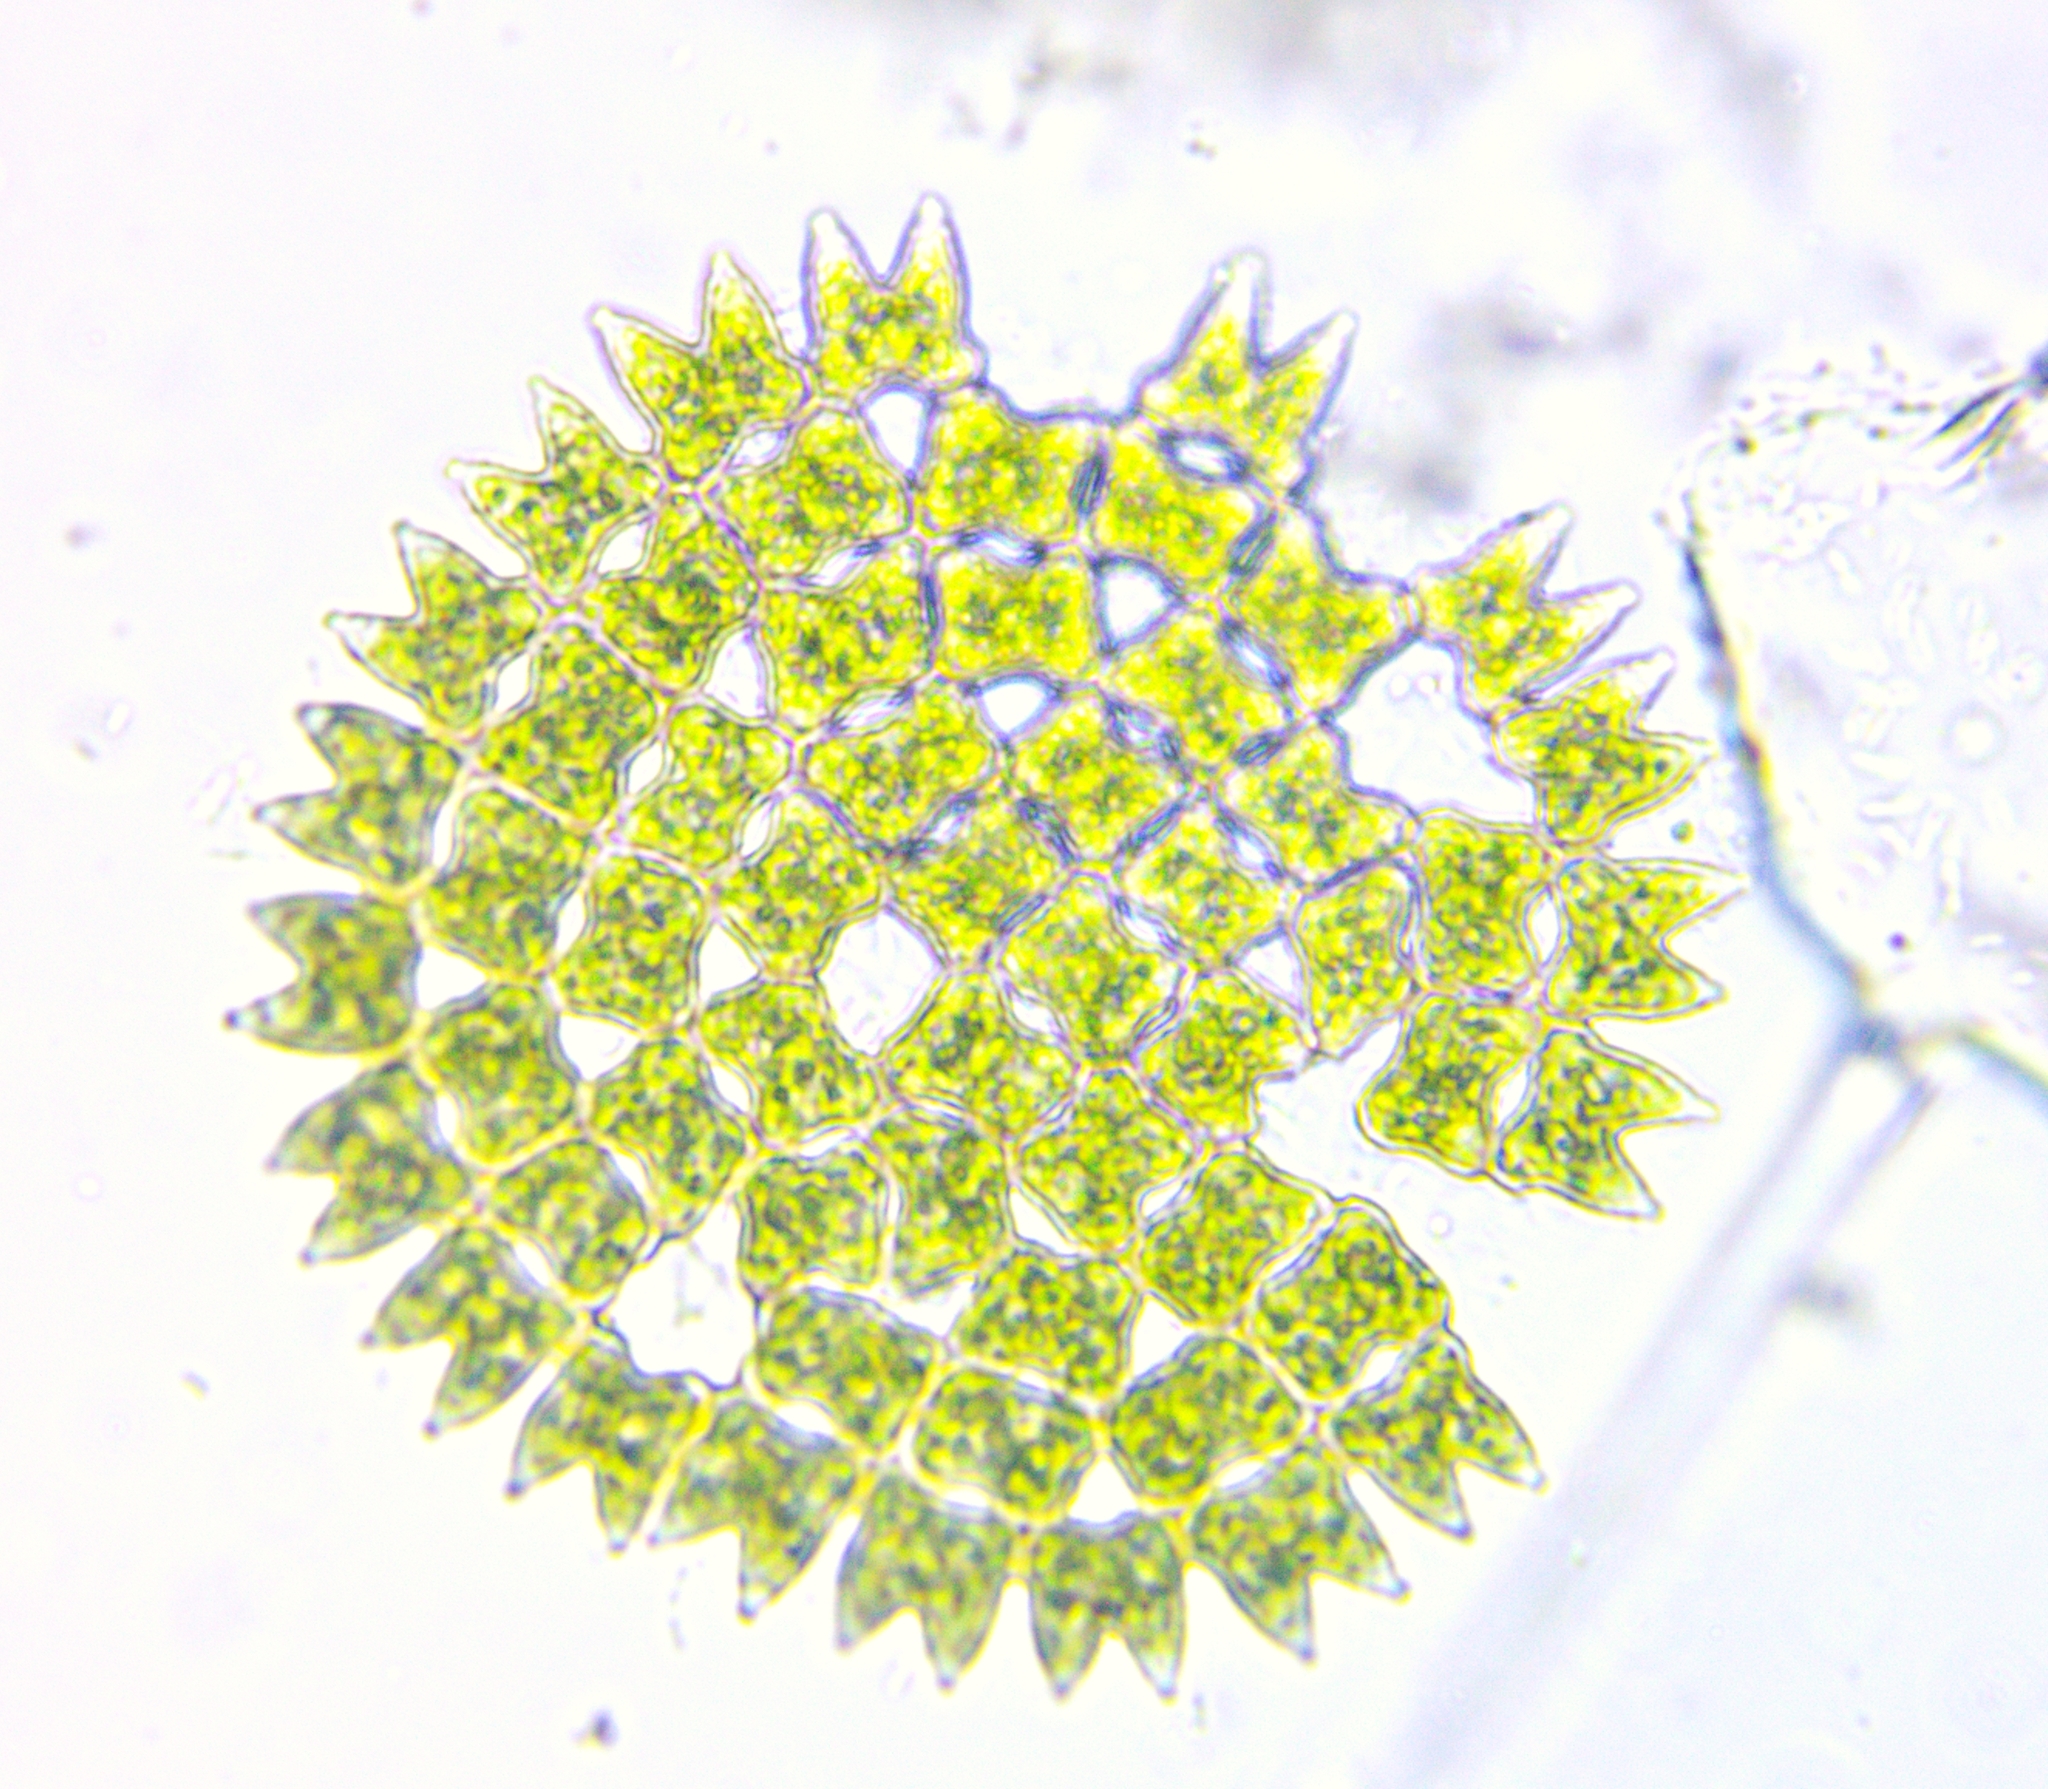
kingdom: Plantae
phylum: Chlorophyta
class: Chlorophyceae
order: Sphaeropleales
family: Hydrodictyaceae
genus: Pediastrum
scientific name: Pediastrum duplex
